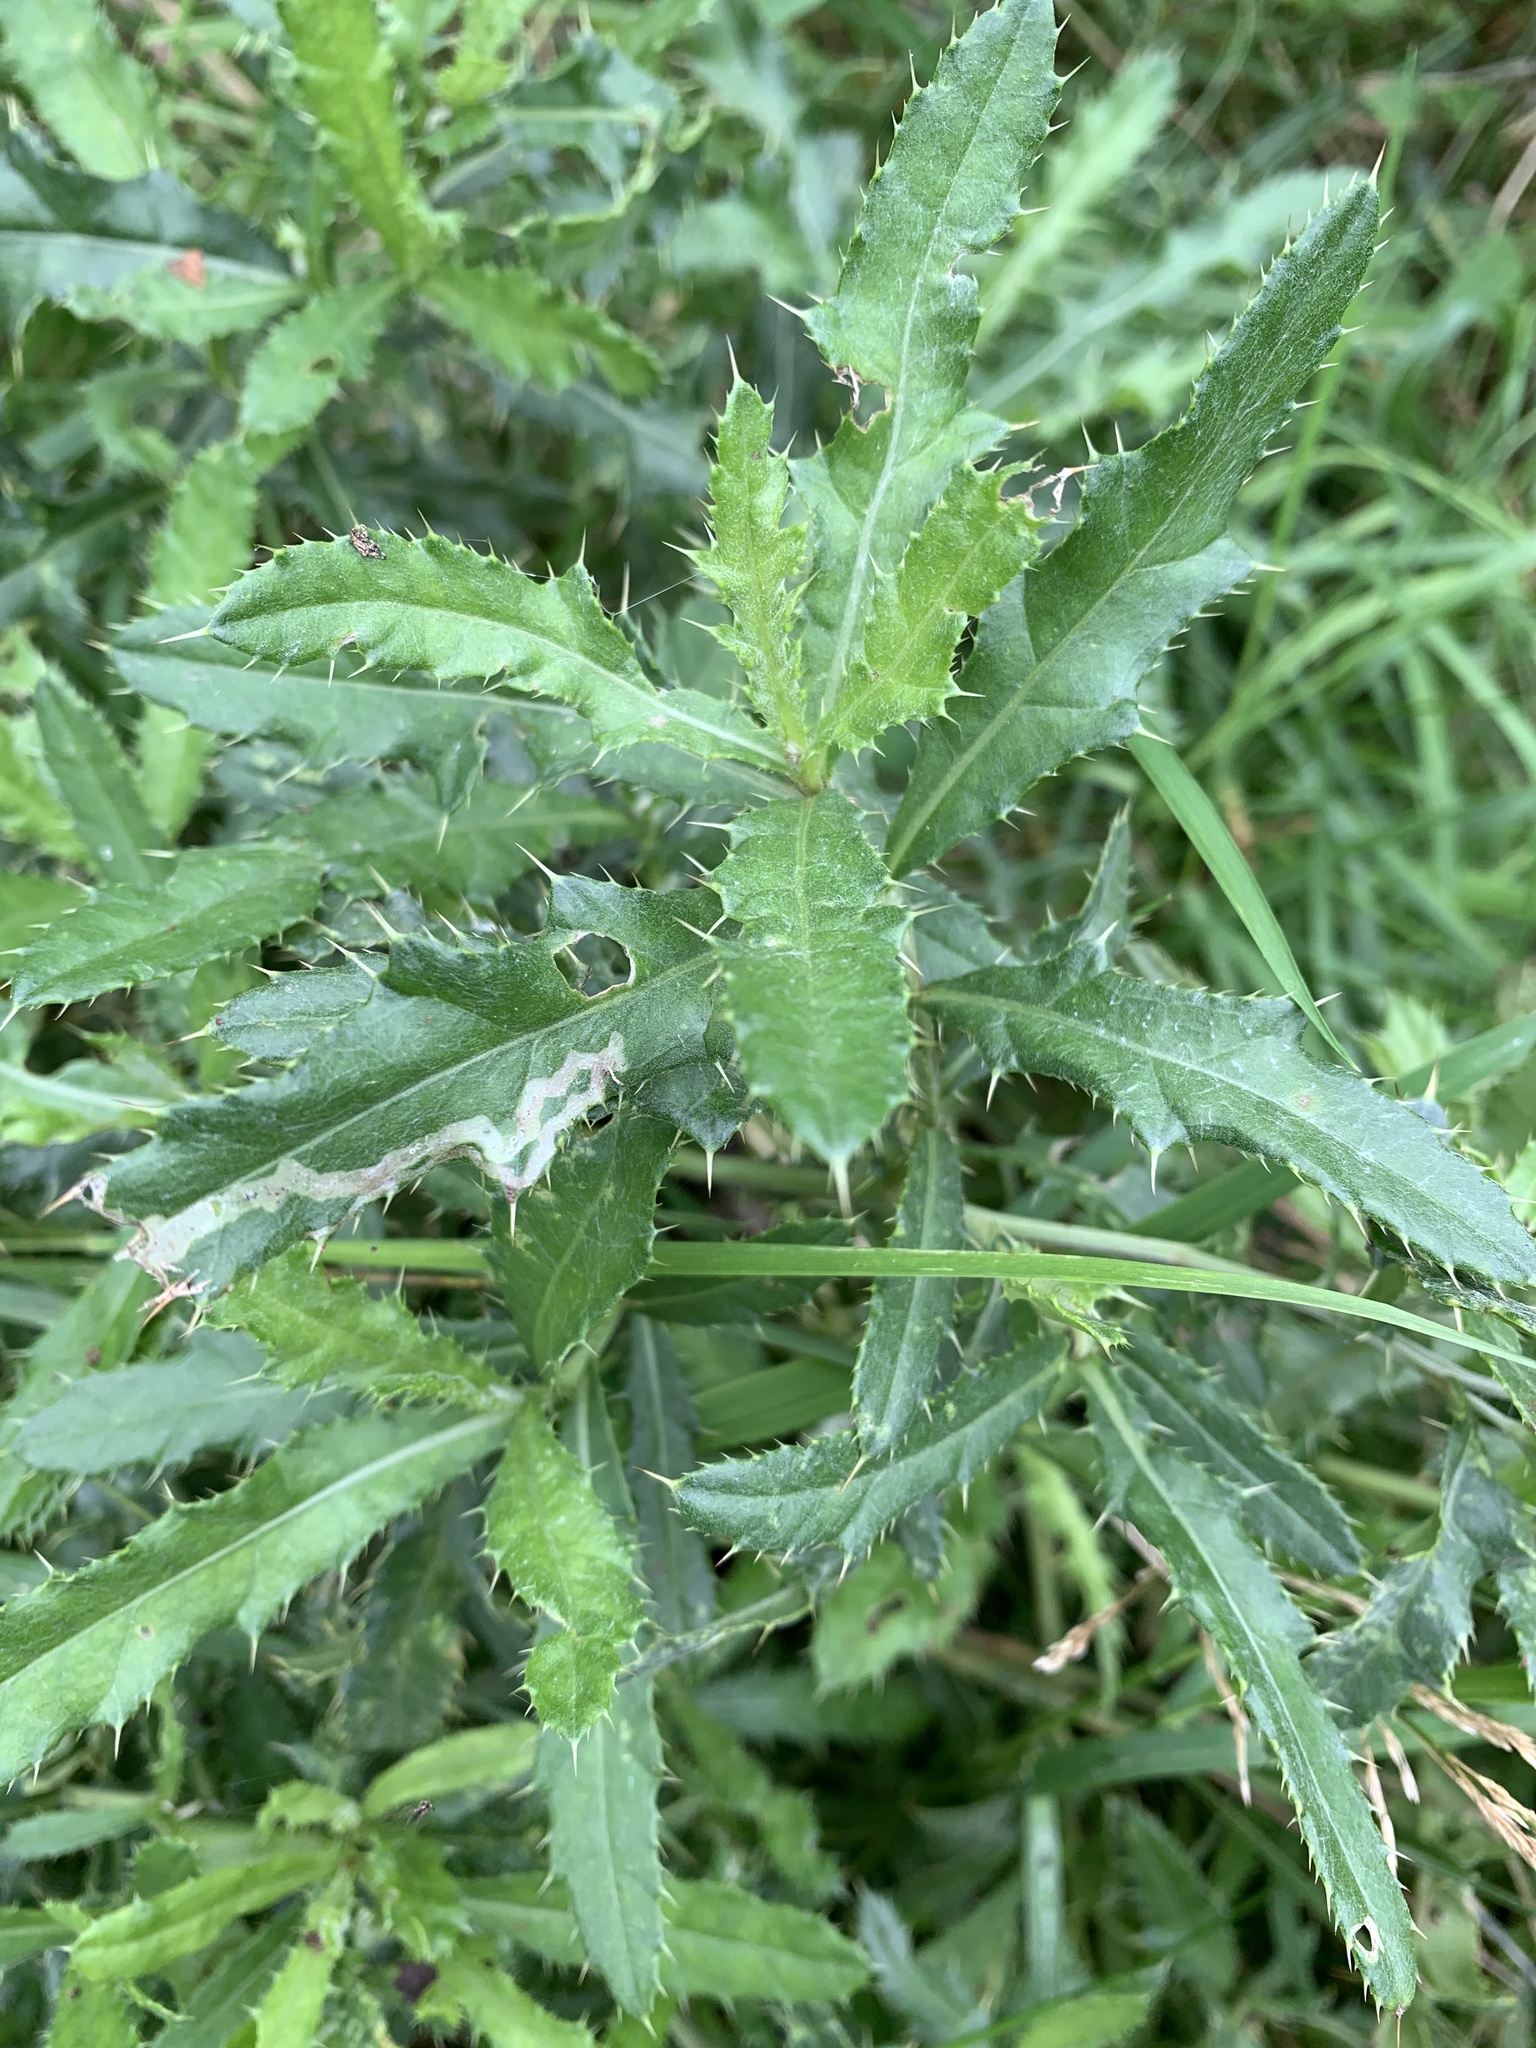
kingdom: Plantae
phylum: Tracheophyta
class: Magnoliopsida
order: Asterales
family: Asteraceae
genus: Cirsium
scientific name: Cirsium arvense
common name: Creeping thistle
